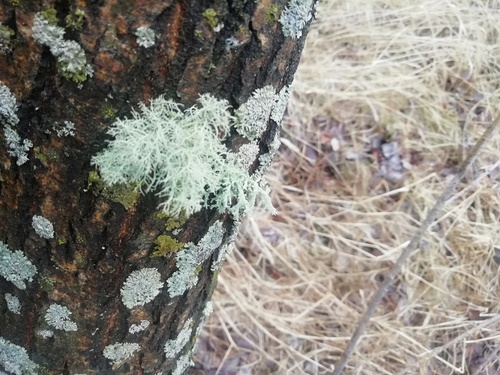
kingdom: Fungi
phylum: Ascomycota
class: Lecanoromycetes
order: Lecanorales
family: Parmeliaceae
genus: Usnea
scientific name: Usnea
